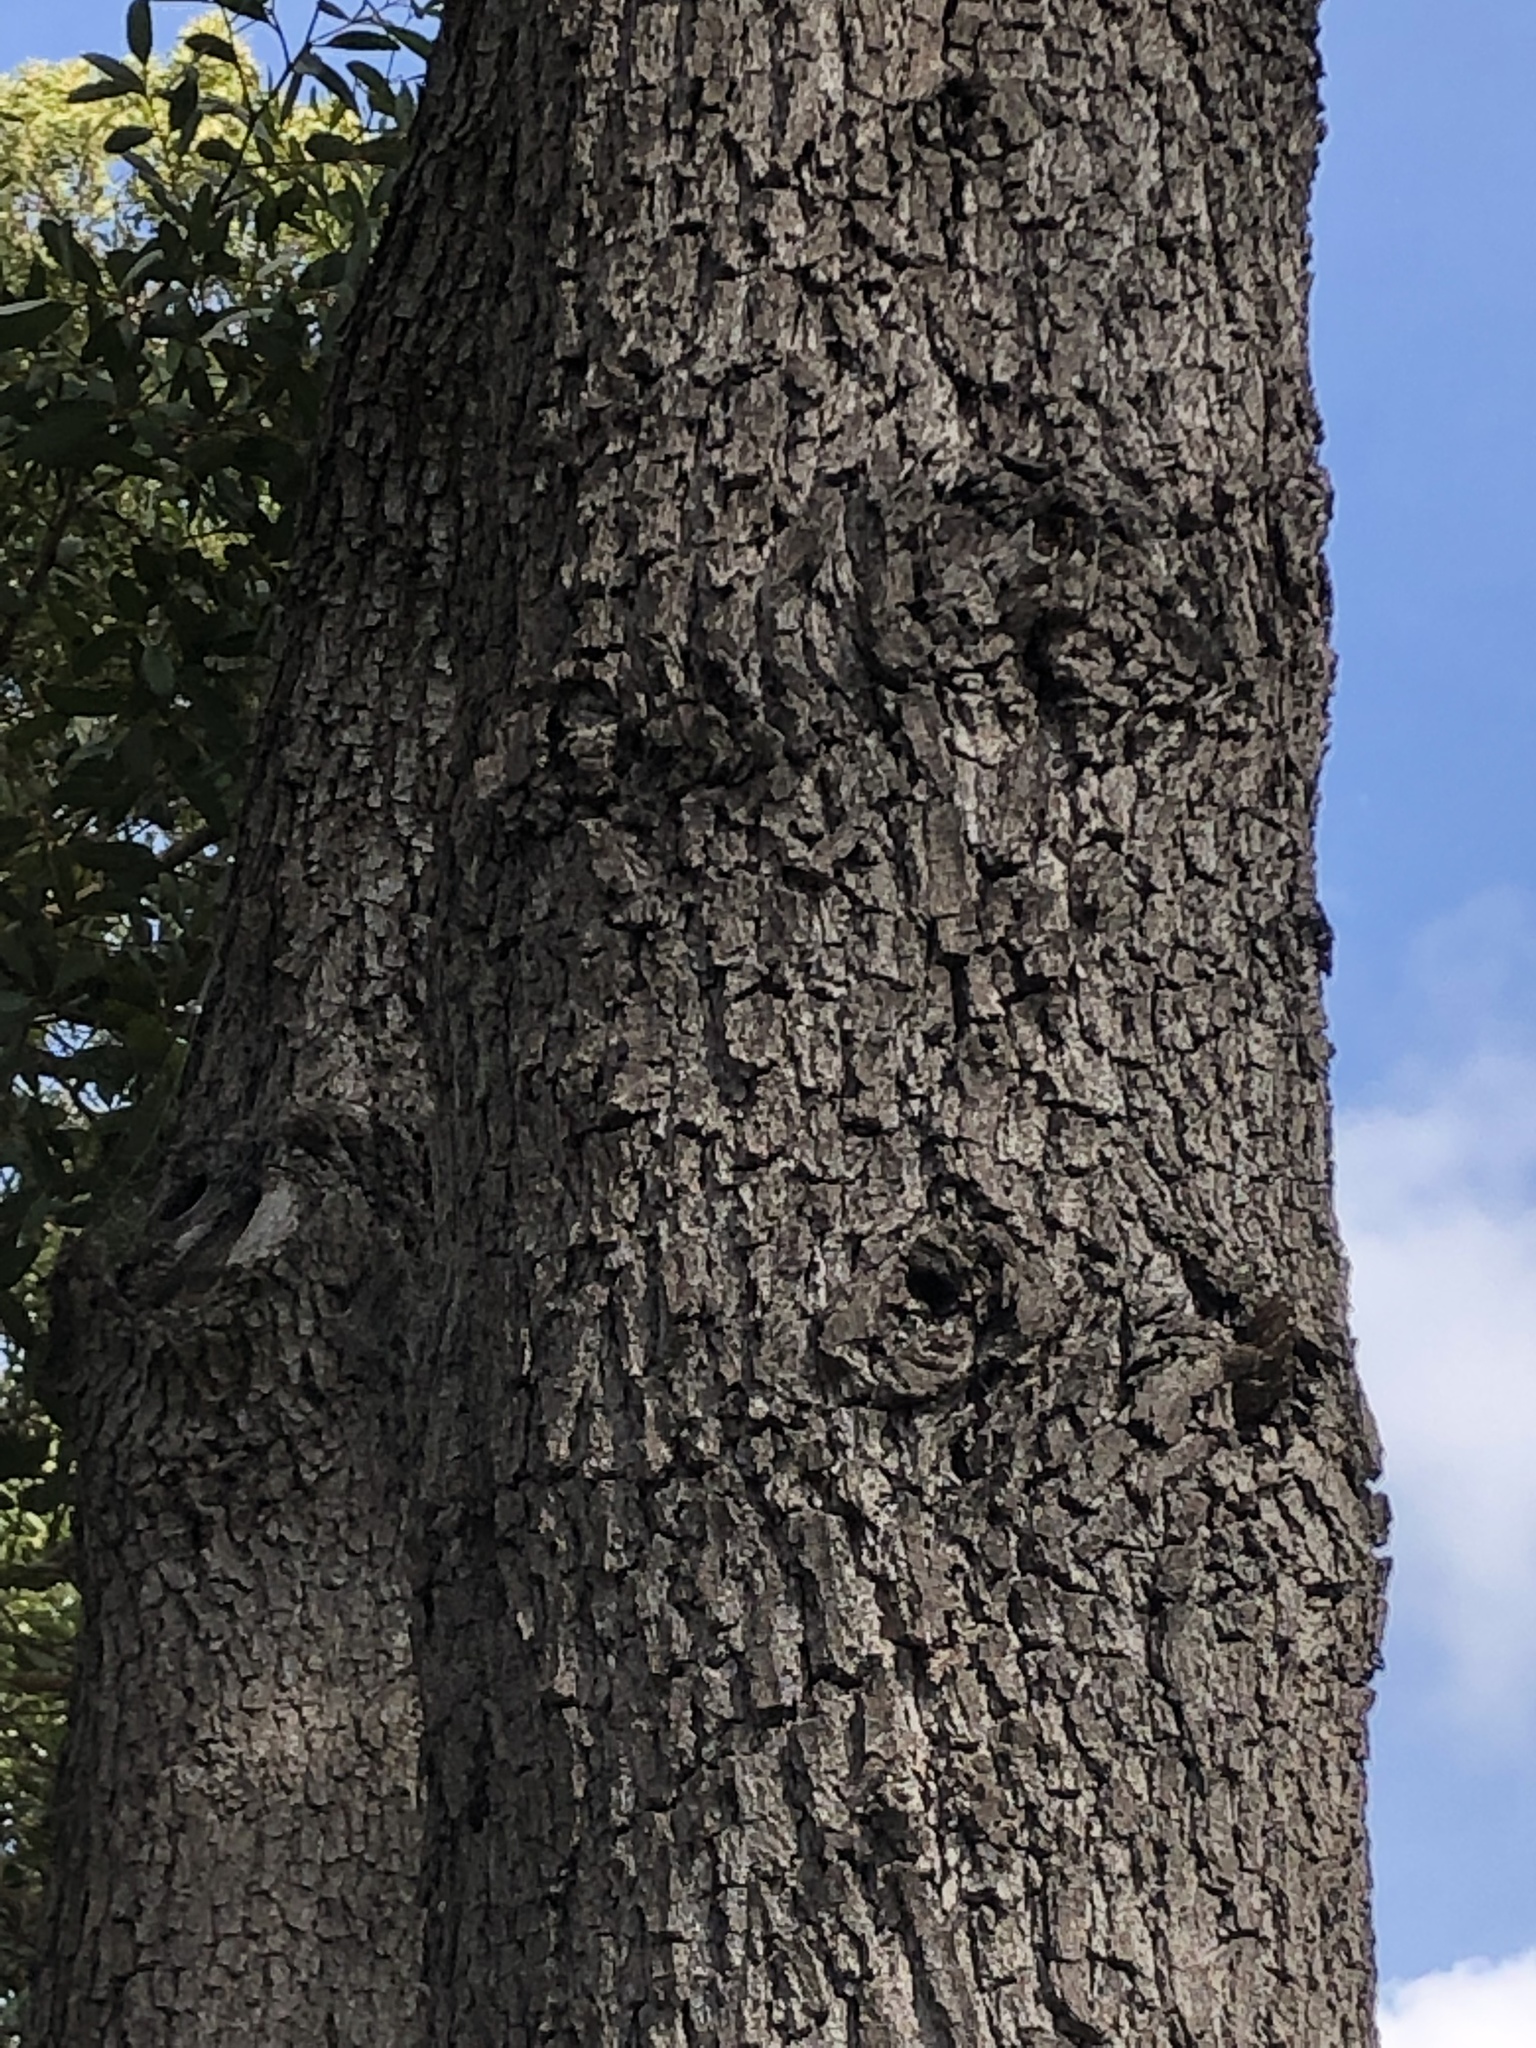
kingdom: Plantae
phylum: Tracheophyta
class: Magnoliopsida
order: Fabales
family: Fabaceae
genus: Acacia
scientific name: Acacia melanoxylon
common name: Blackwood
